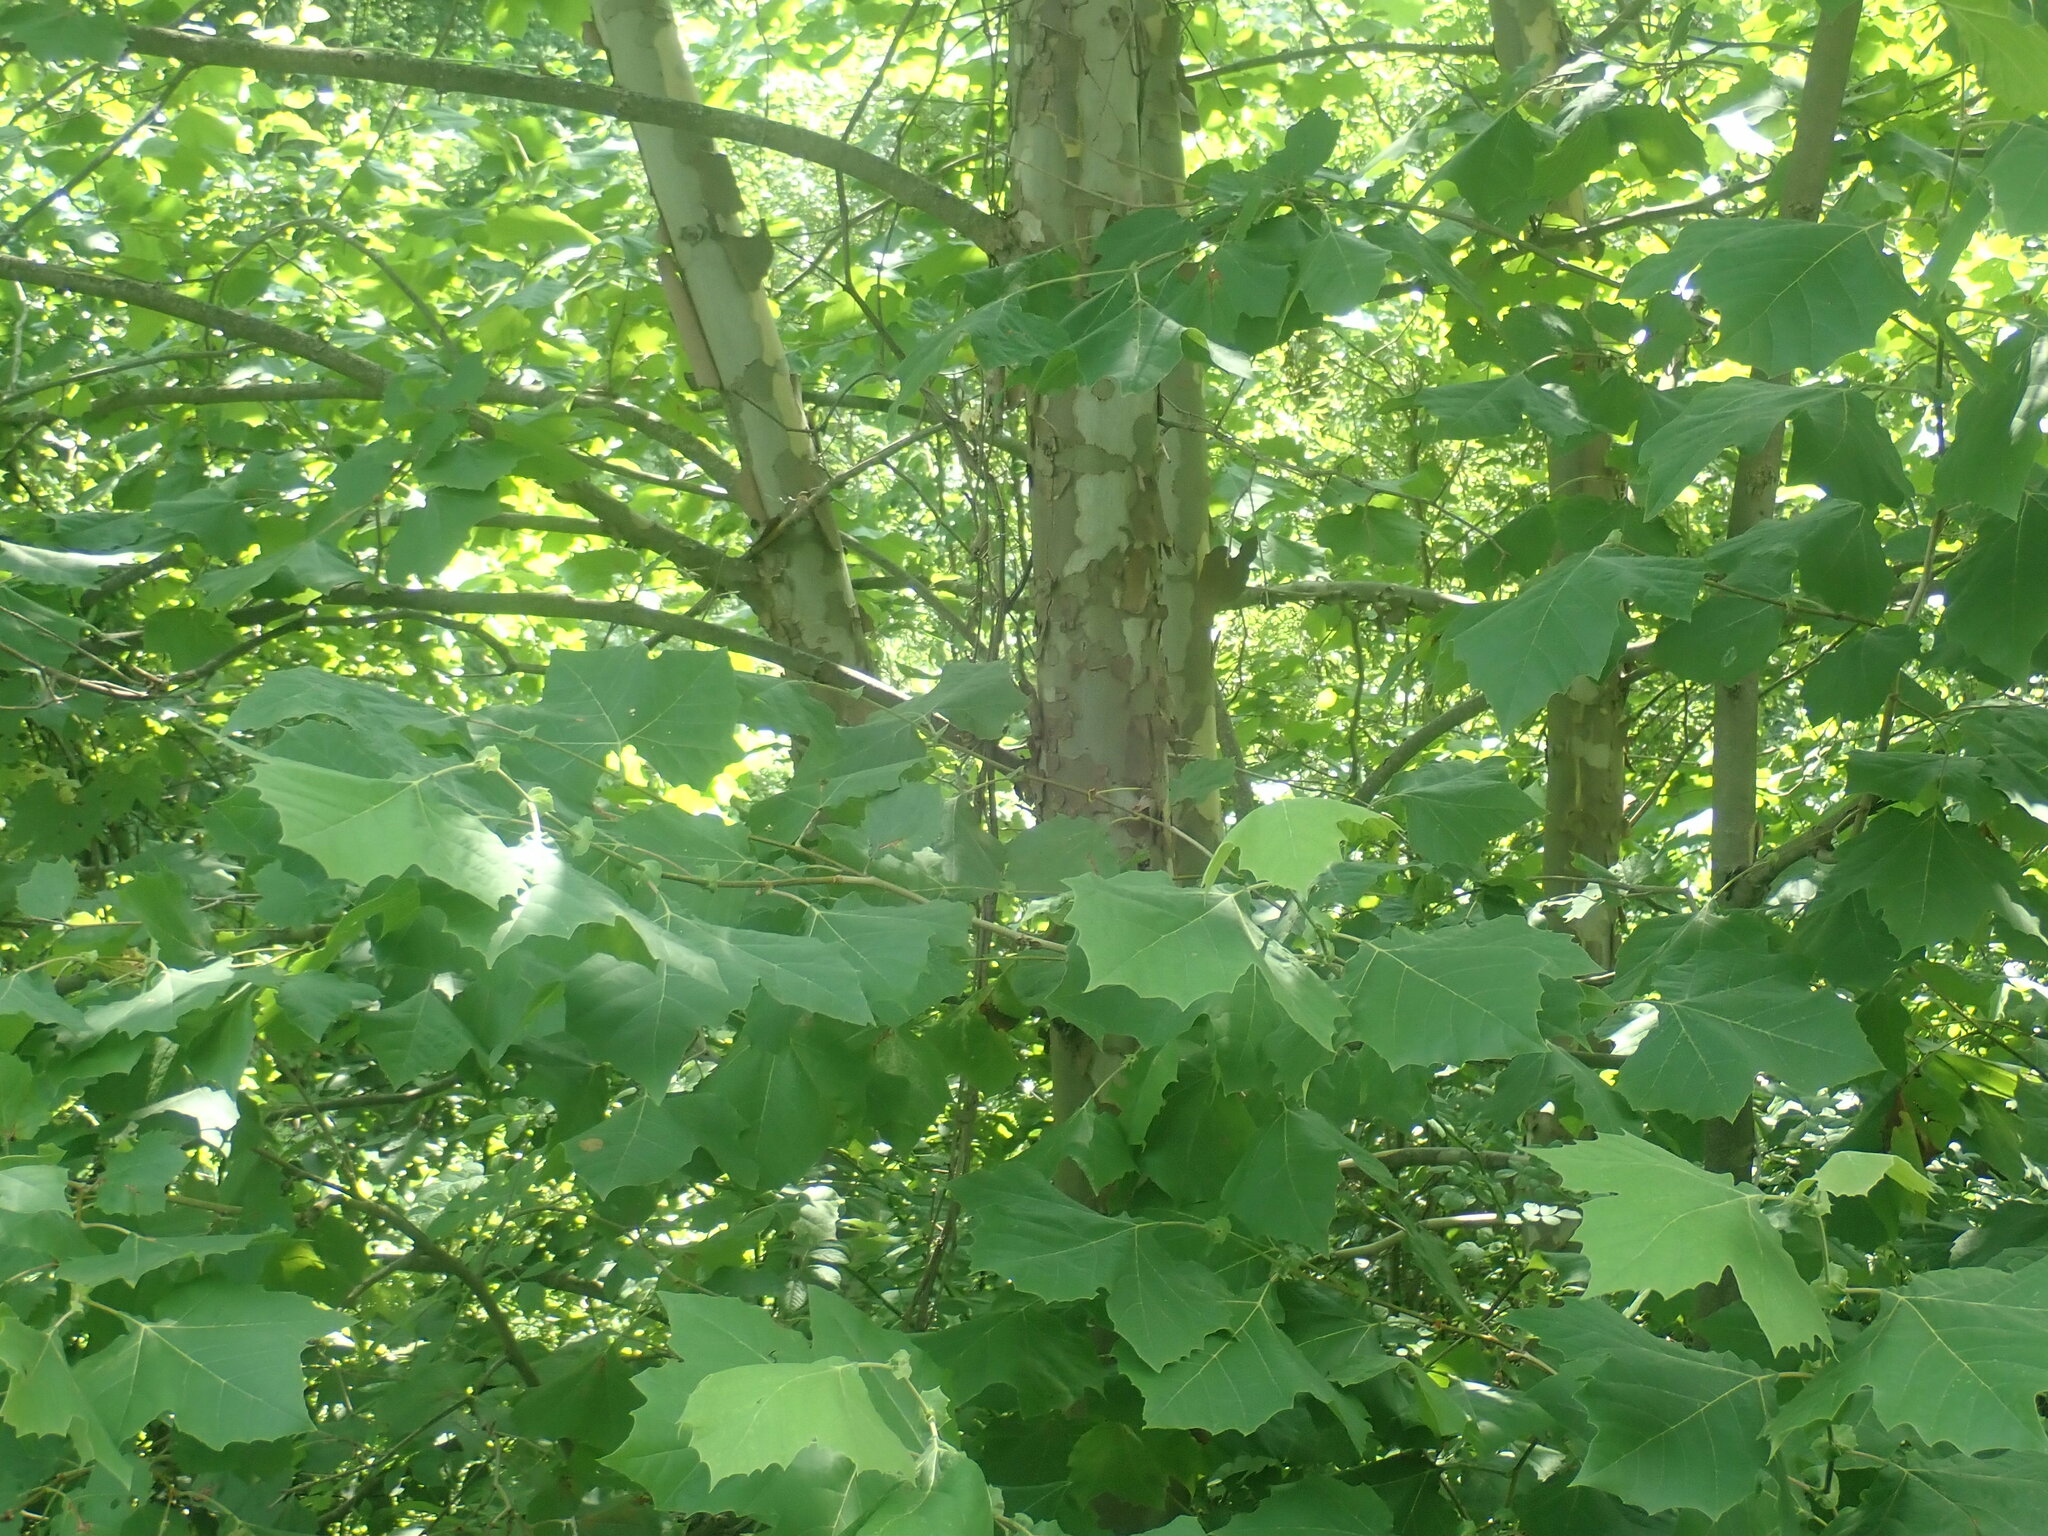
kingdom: Plantae
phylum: Tracheophyta
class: Magnoliopsida
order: Proteales
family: Platanaceae
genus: Platanus
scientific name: Platanus occidentalis
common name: American sycamore
